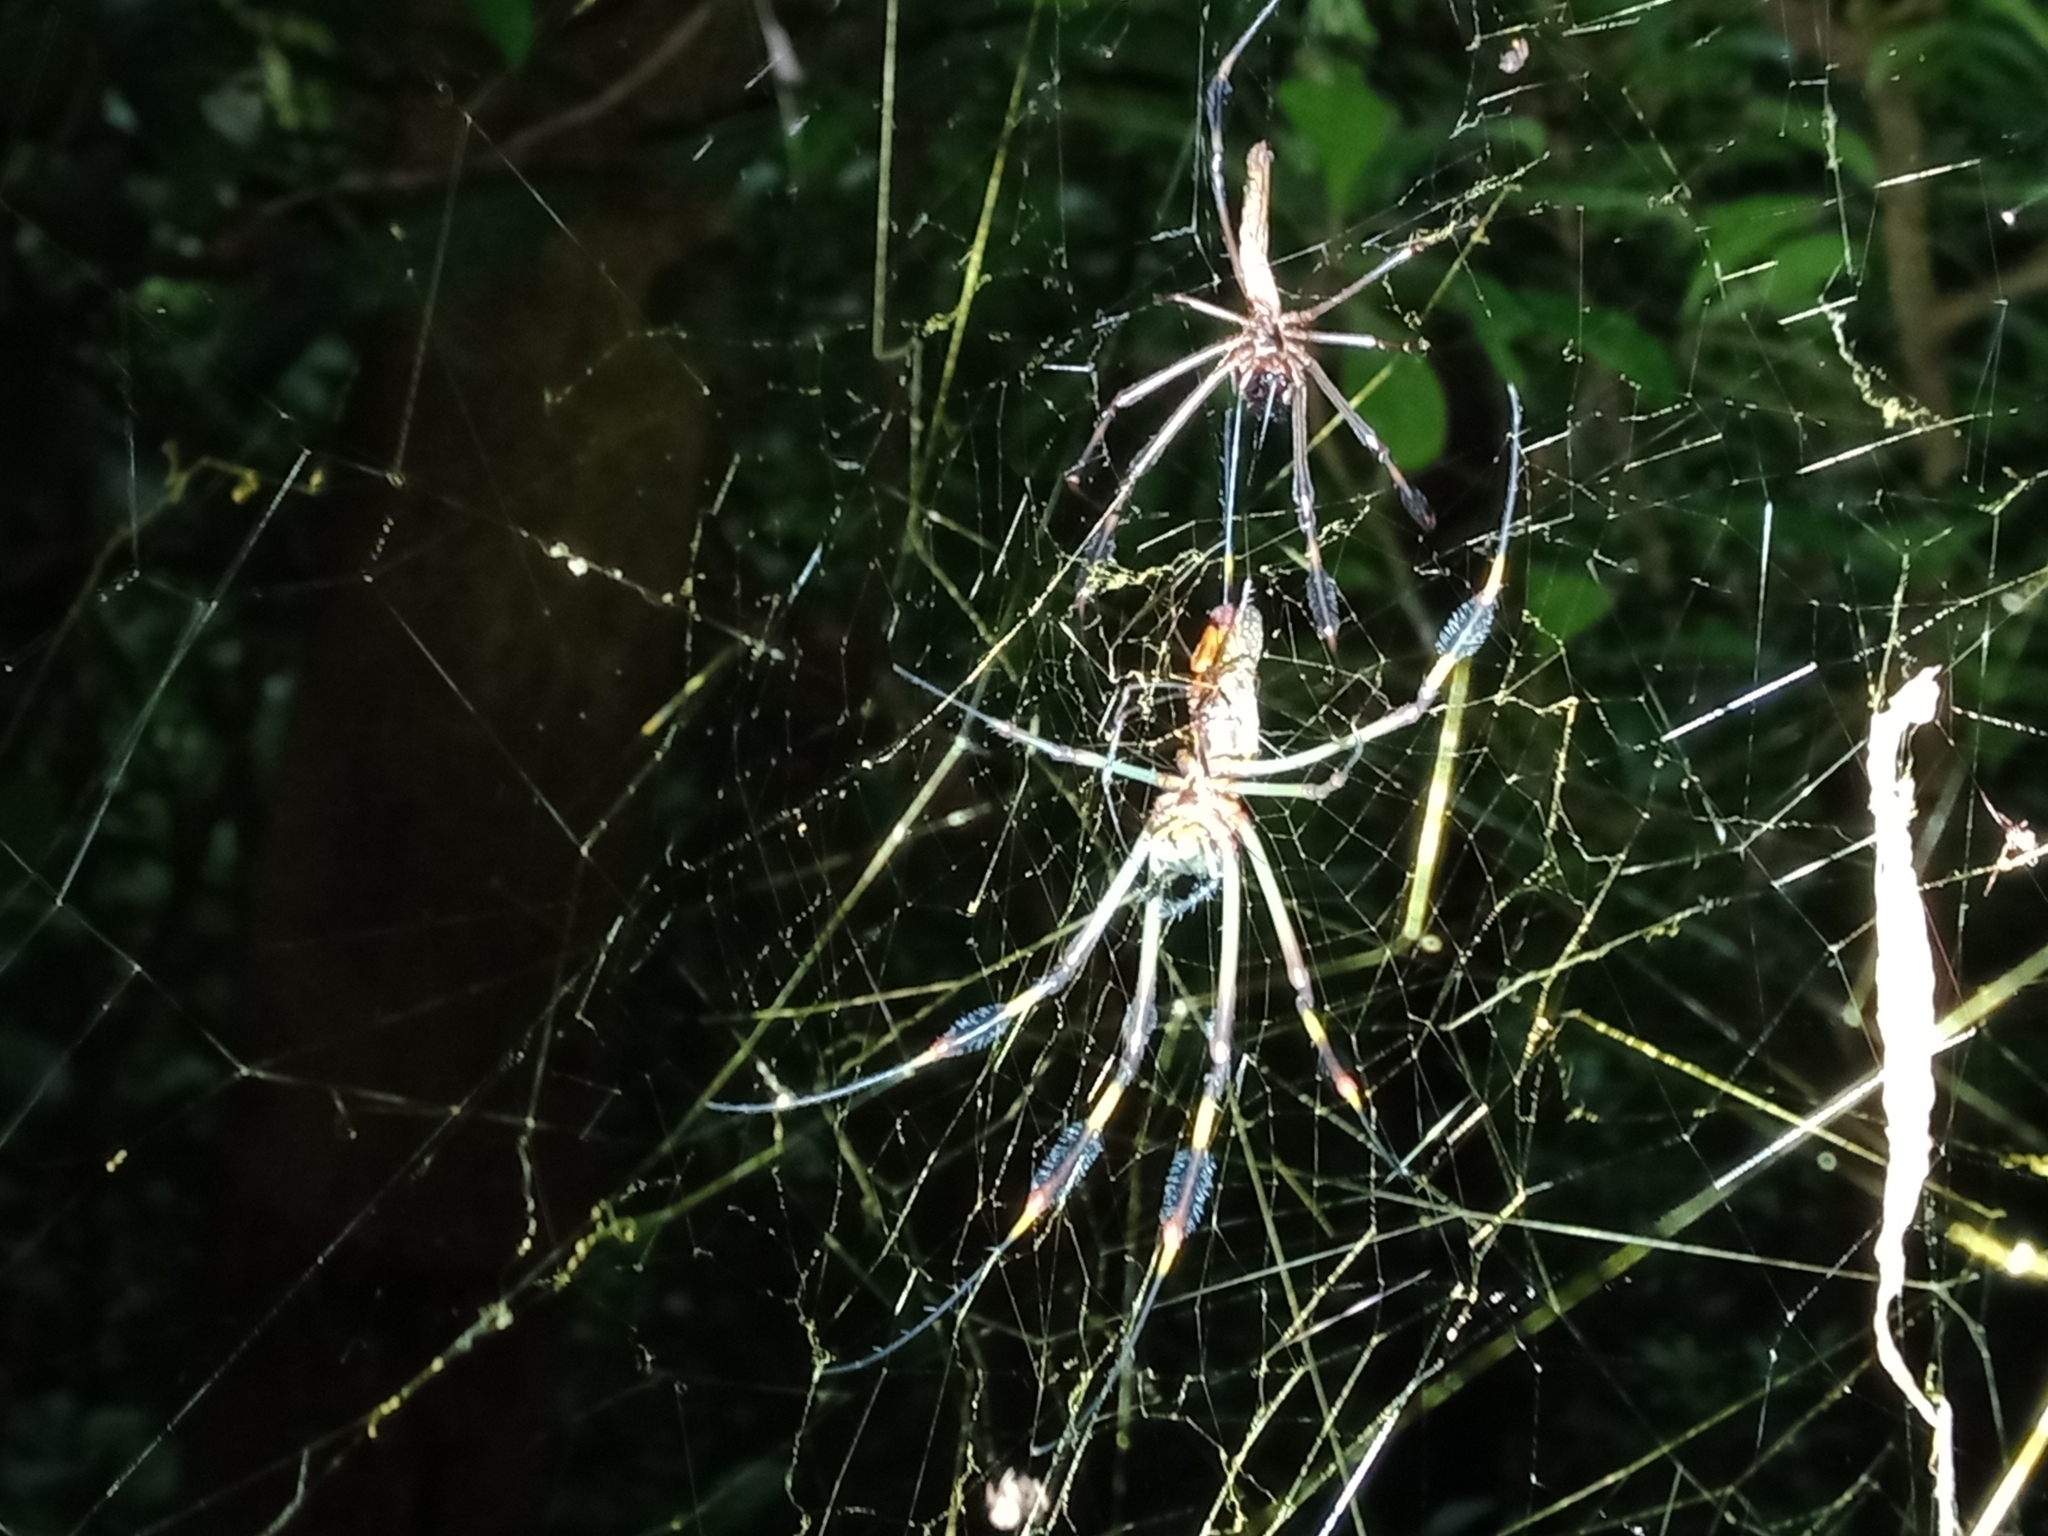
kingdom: Animalia
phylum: Arthropoda
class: Arachnida
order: Araneae
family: Araneidae
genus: Trichonephila
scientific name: Trichonephila clavipes
